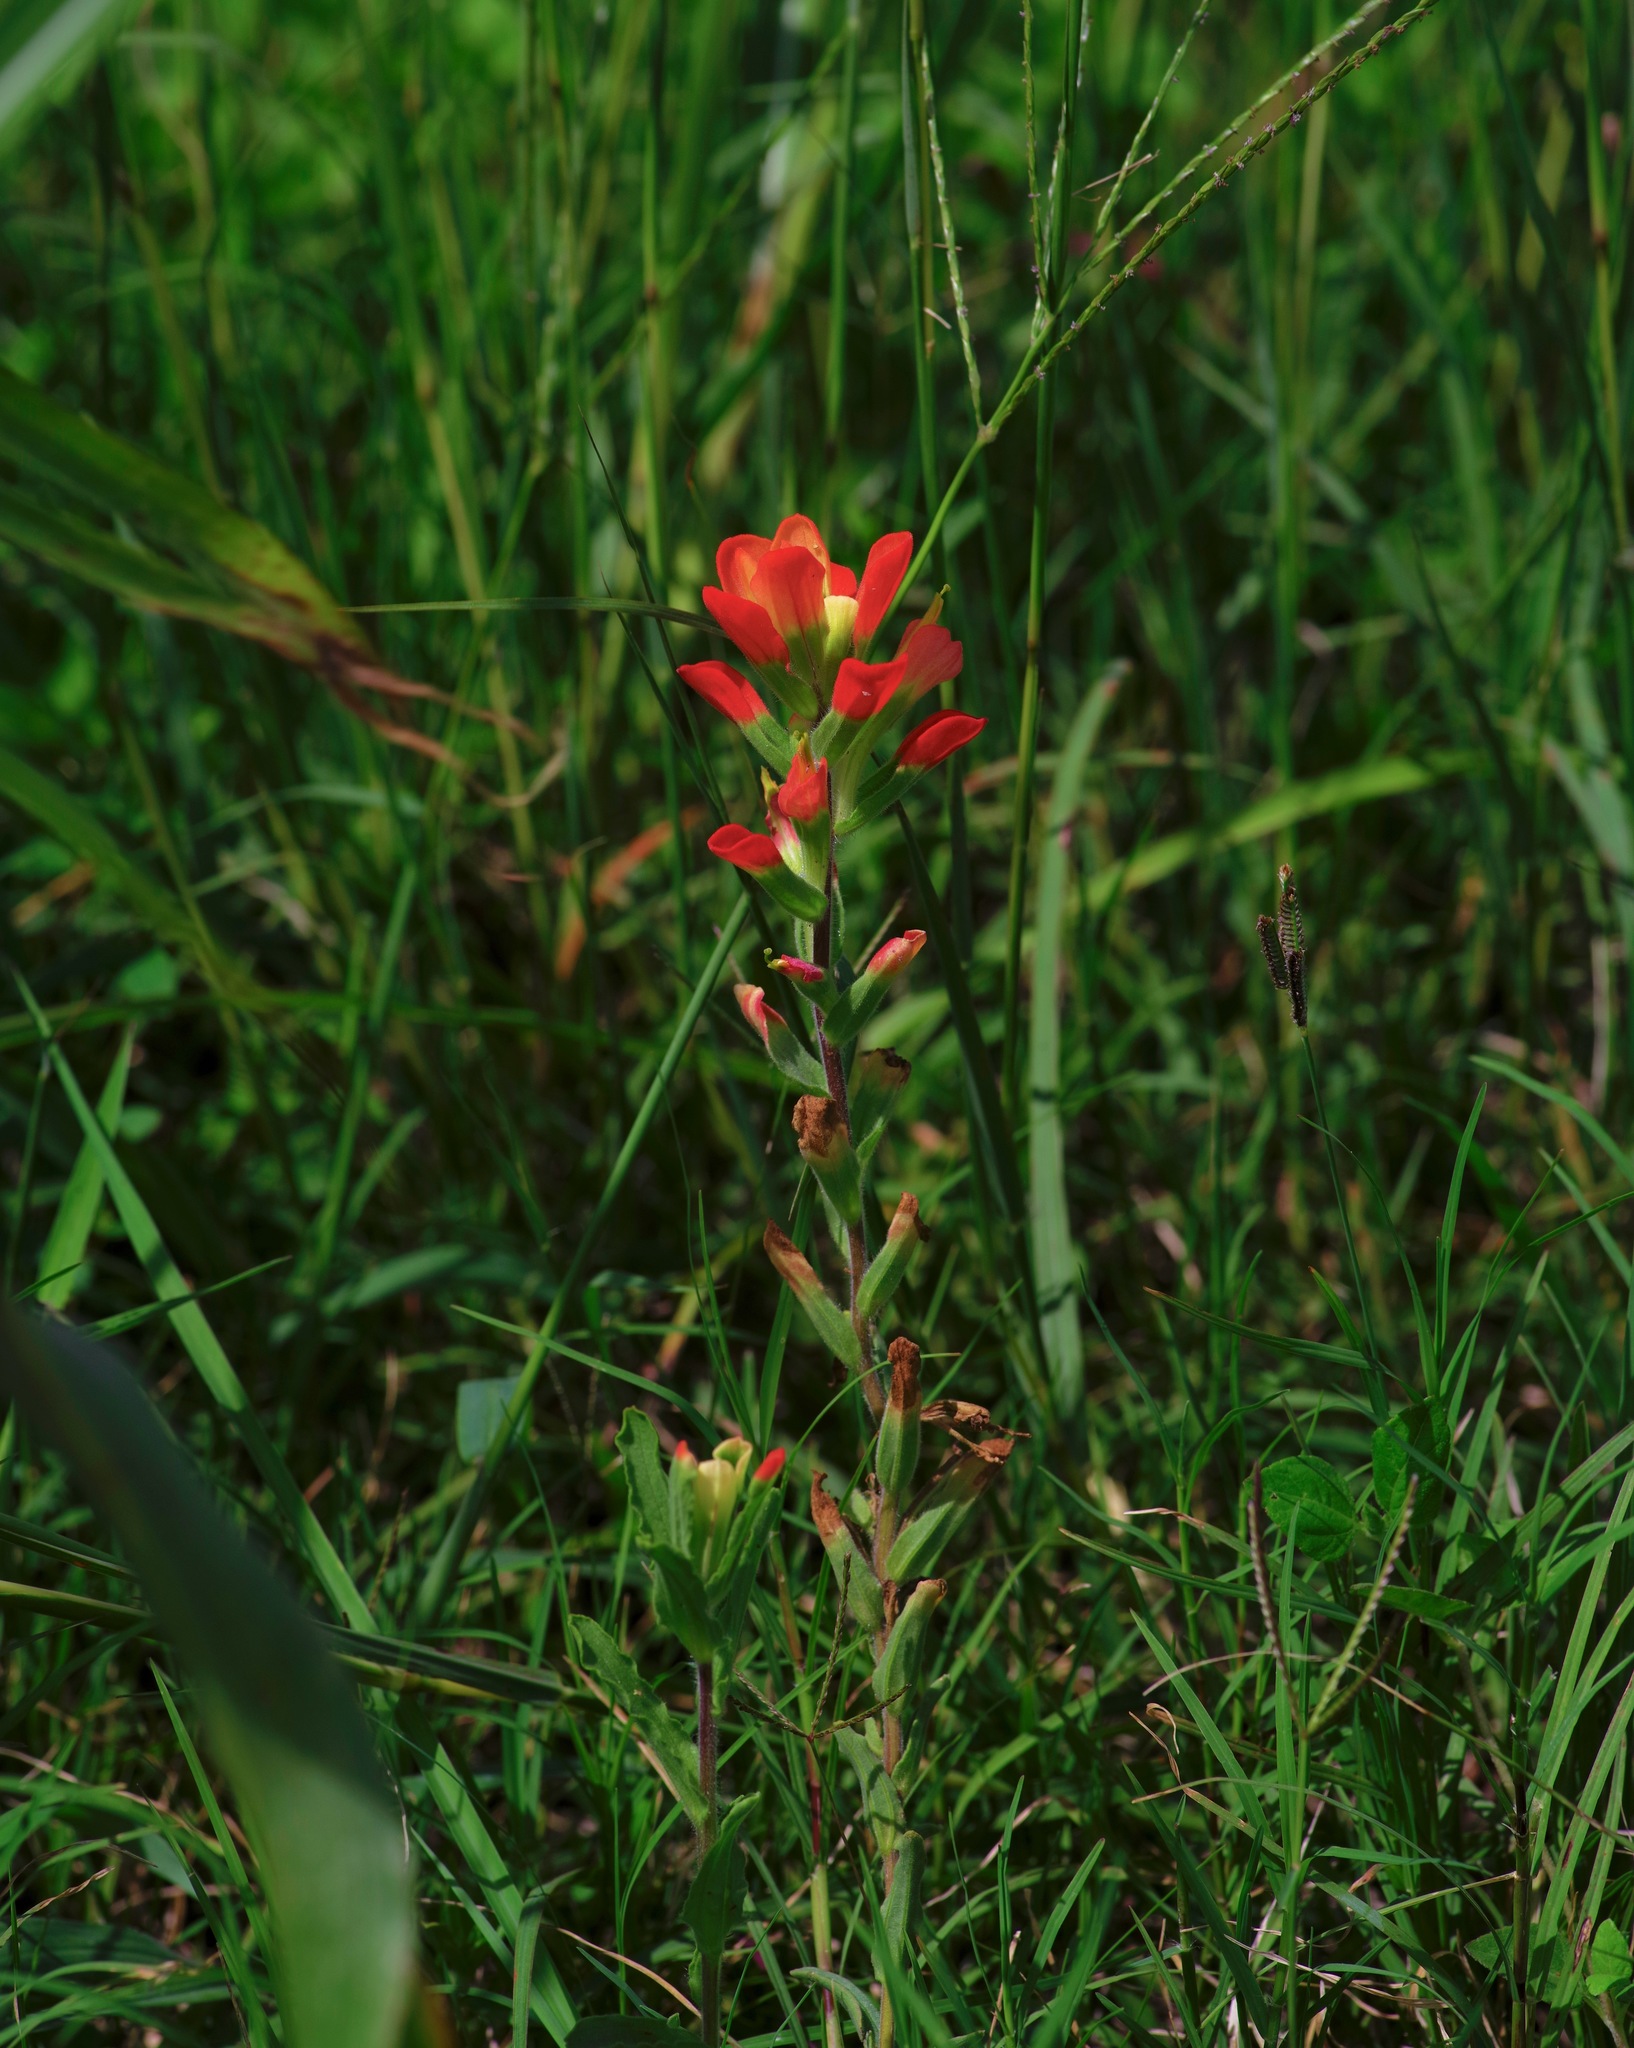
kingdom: Plantae
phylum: Tracheophyta
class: Magnoliopsida
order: Lamiales
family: Orobanchaceae
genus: Castilleja
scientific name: Castilleja indivisa
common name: Texas paintbrush
